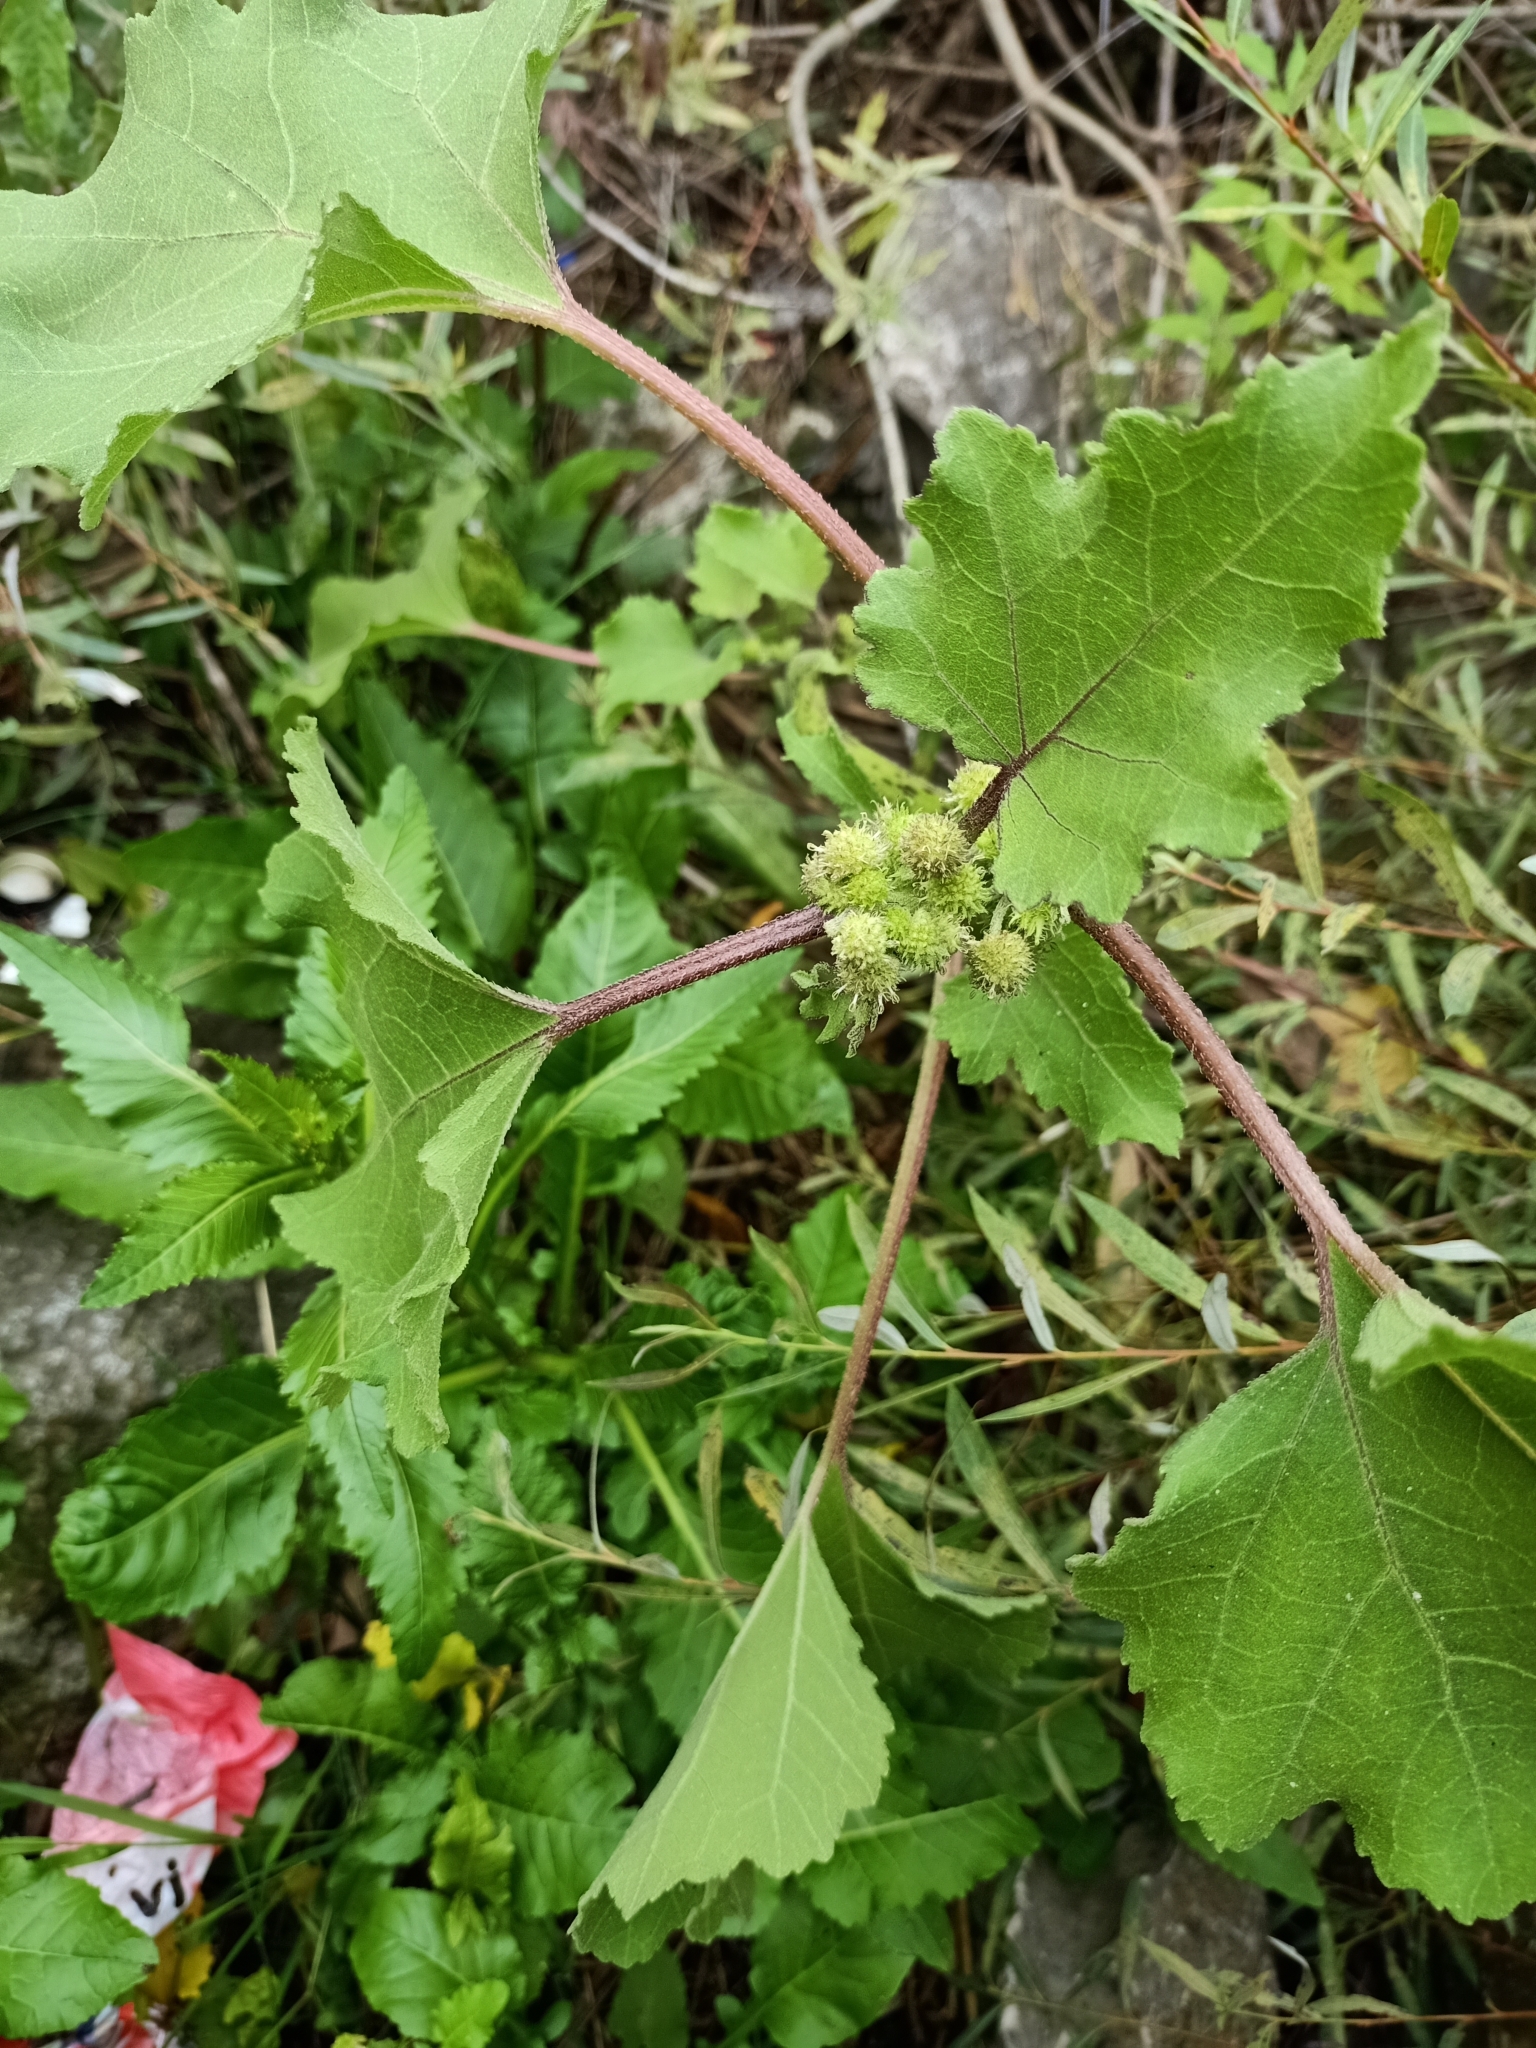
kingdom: Plantae
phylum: Tracheophyta
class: Magnoliopsida
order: Asterales
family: Asteraceae
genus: Xanthium
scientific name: Xanthium strumarium
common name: Rough cocklebur
